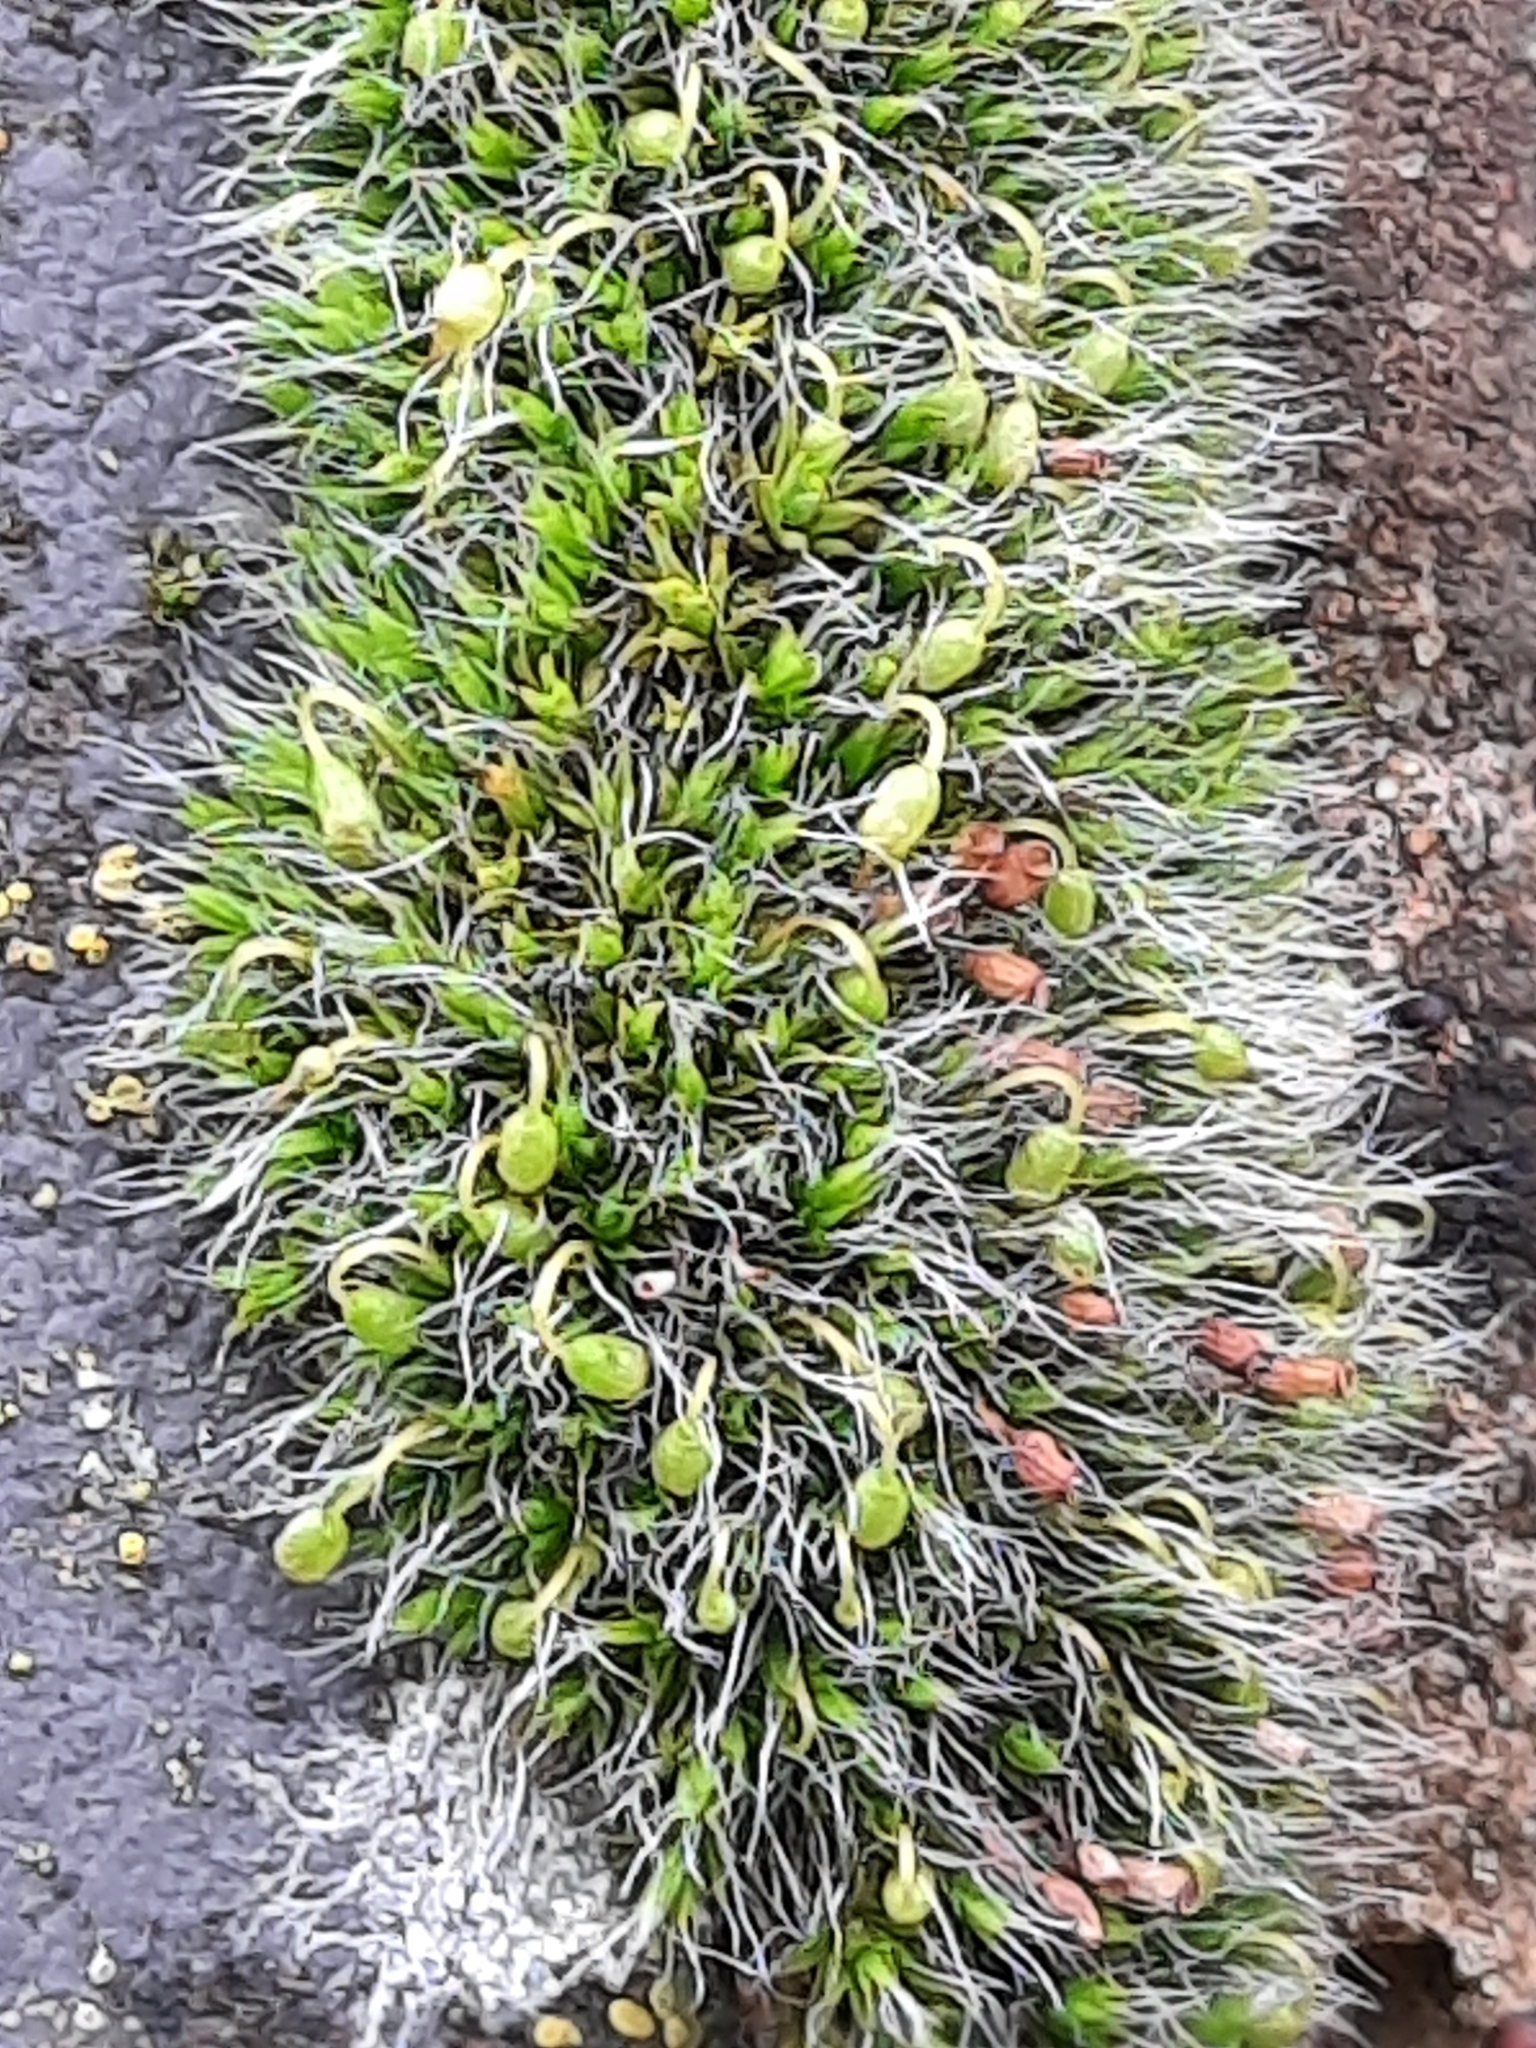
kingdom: Plantae
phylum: Bryophyta
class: Bryopsida
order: Grimmiales
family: Grimmiaceae
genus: Grimmia
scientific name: Grimmia pulvinata
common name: Grey-cushioned grimmia
